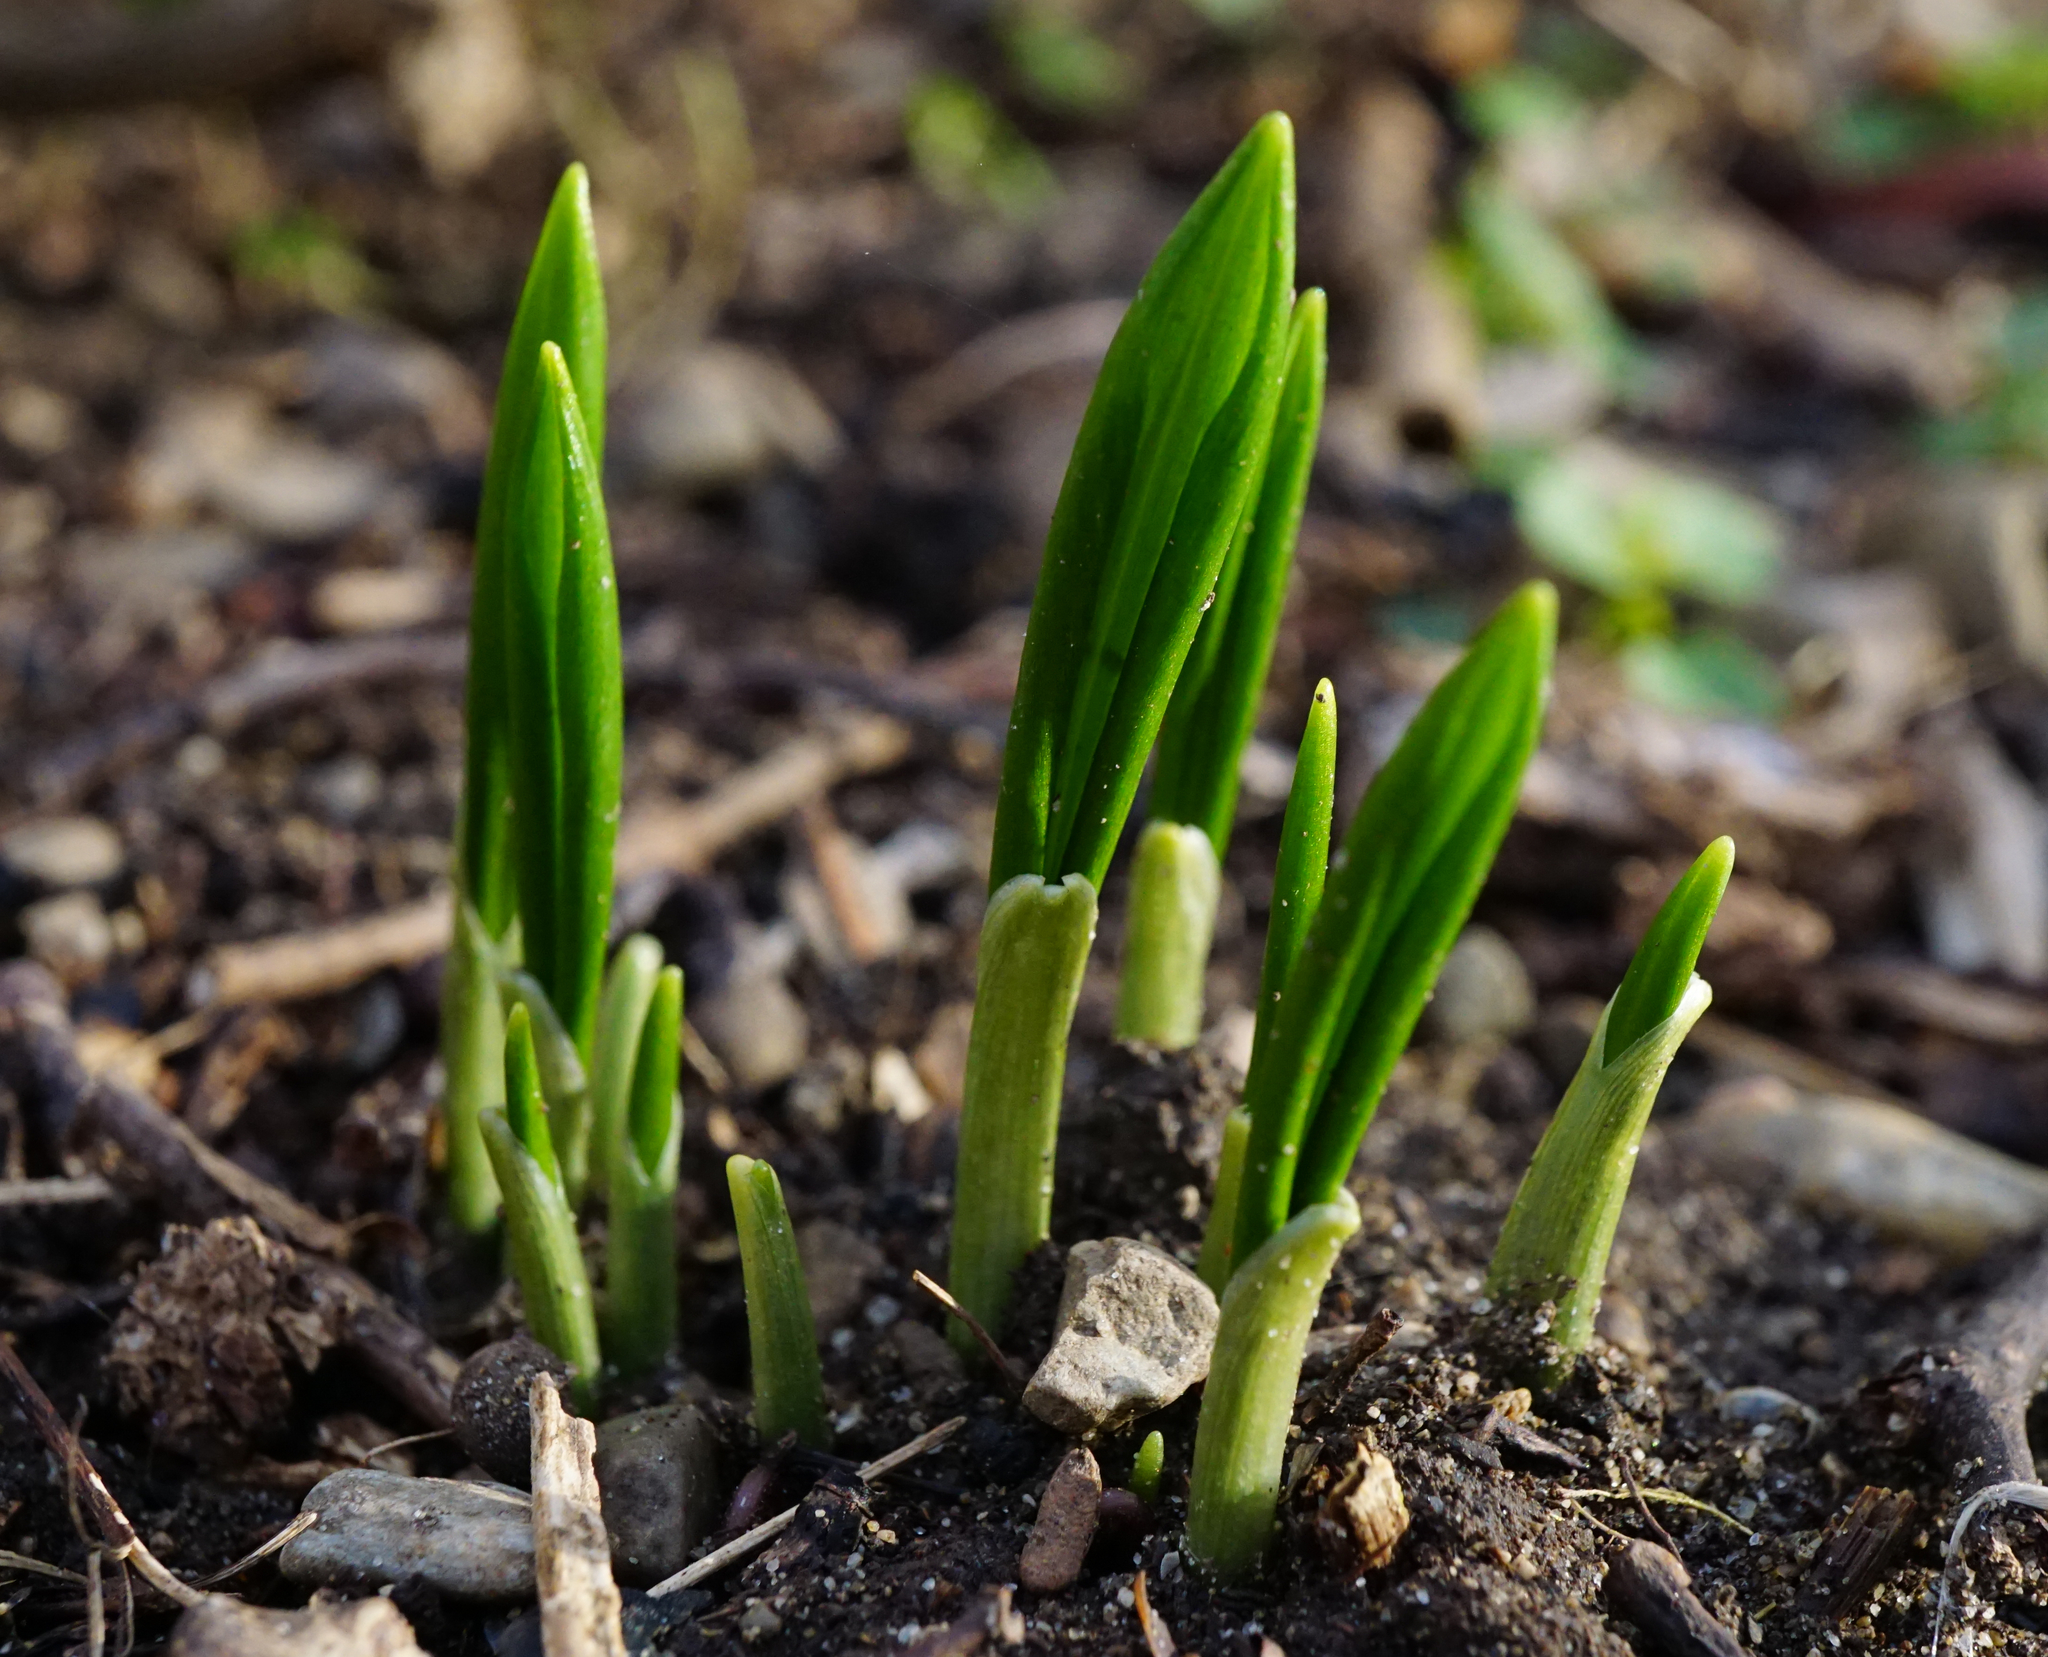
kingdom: Plantae
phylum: Tracheophyta
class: Liliopsida
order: Asparagales
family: Amaryllidaceae
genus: Allium
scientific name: Allium ursinum
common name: Ramsons
